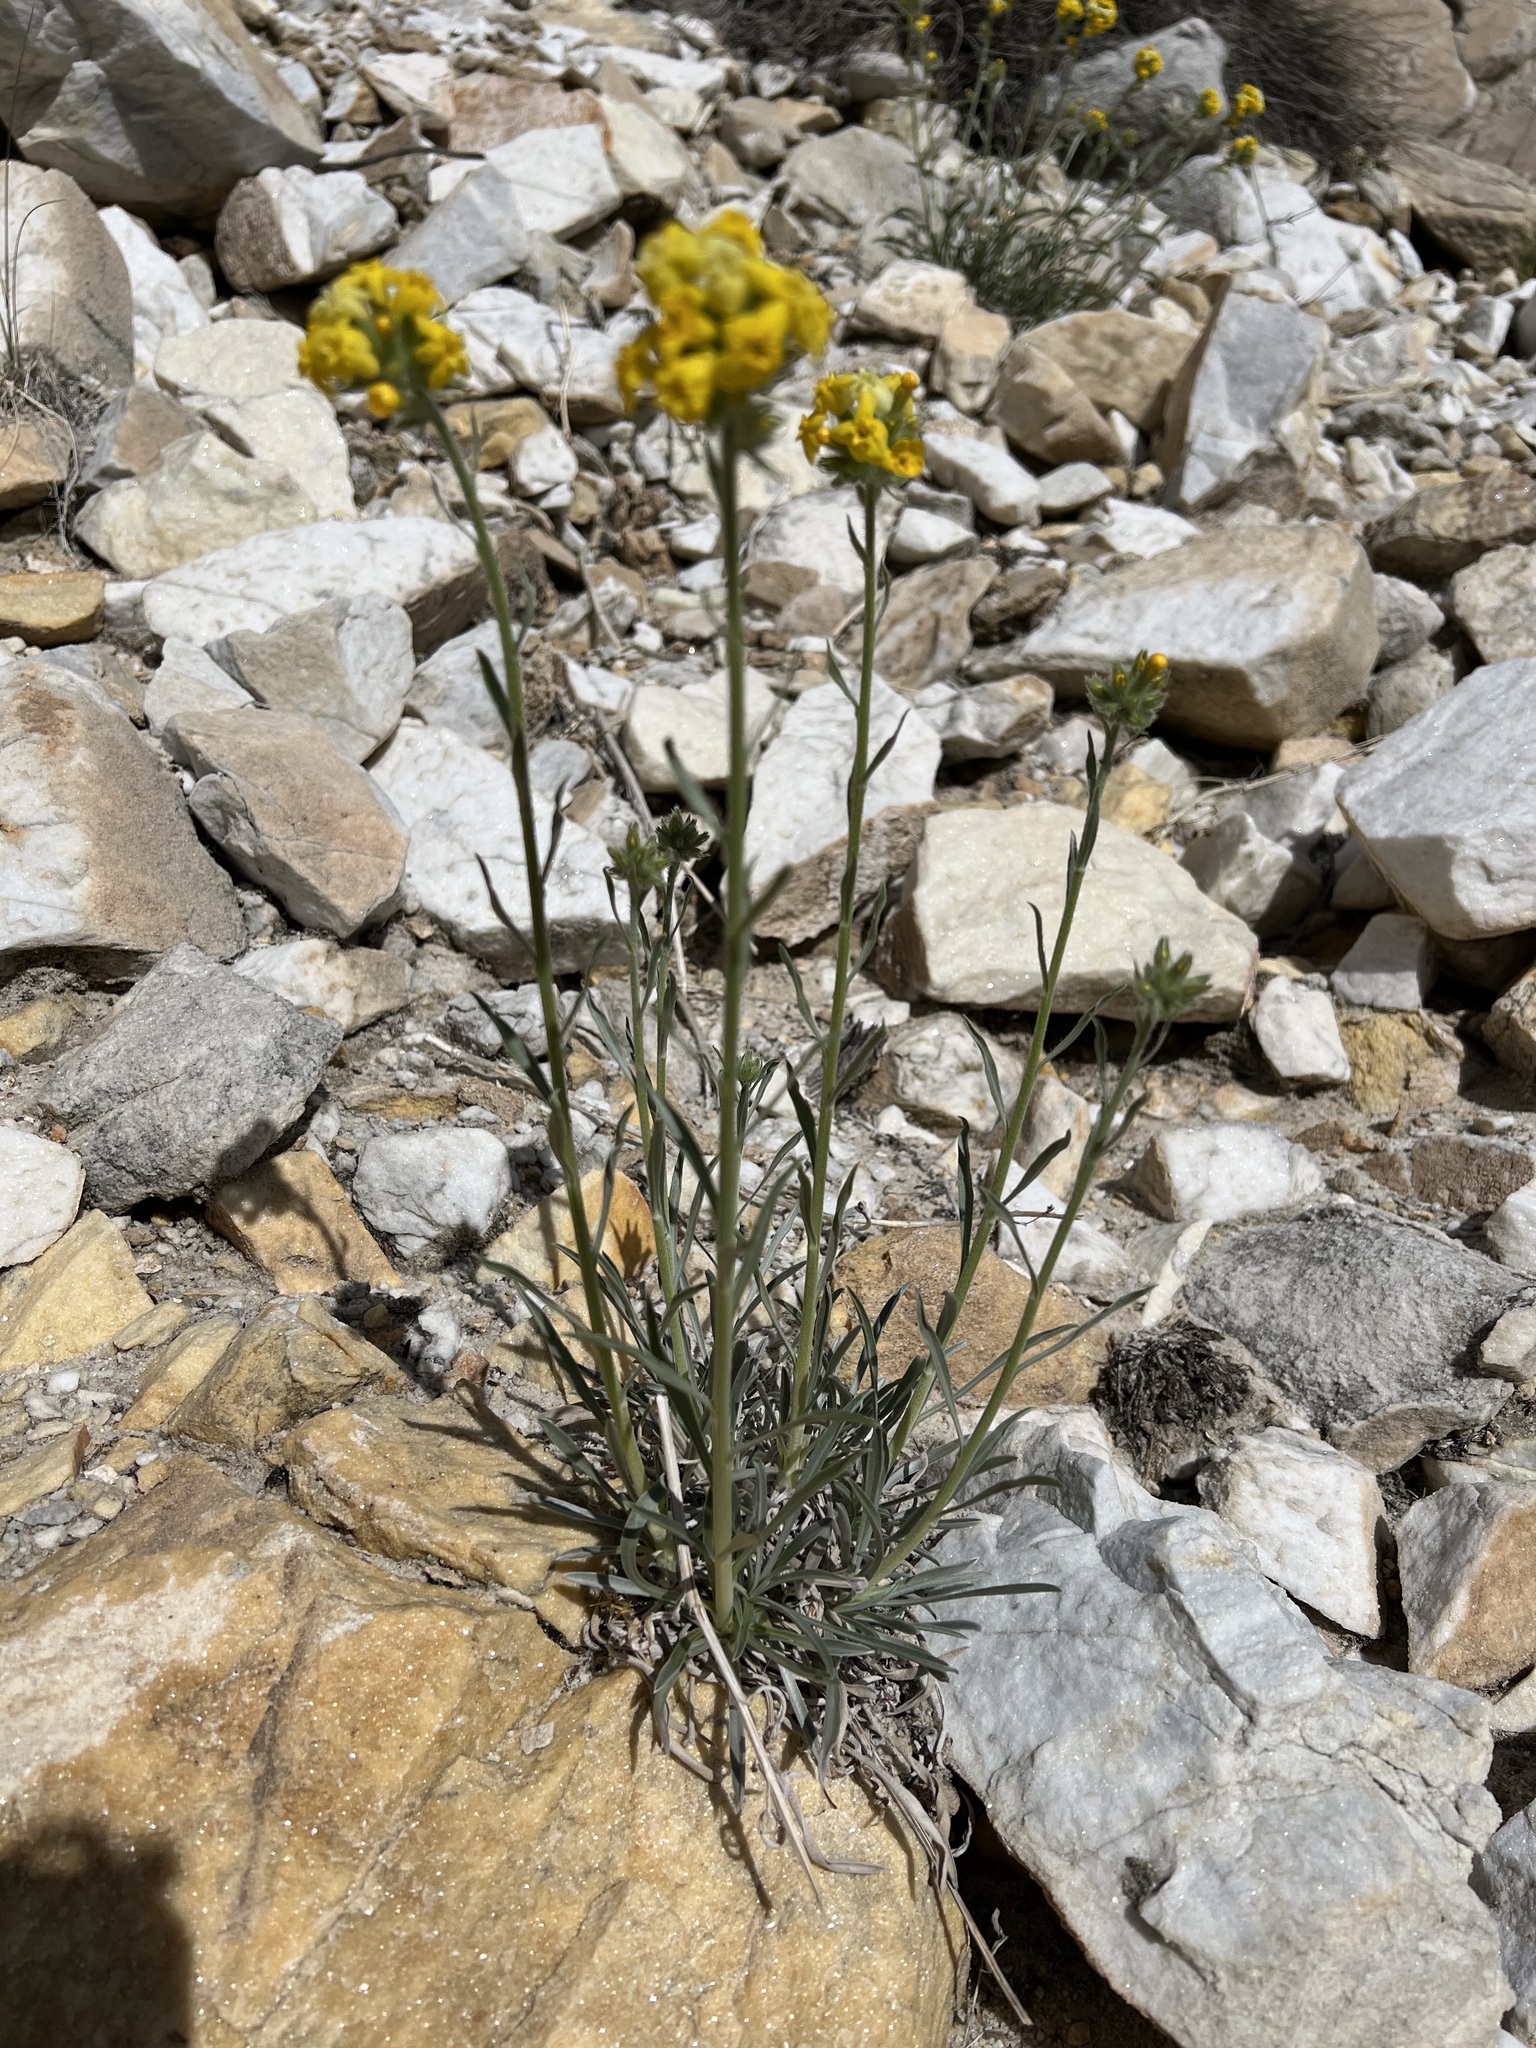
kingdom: Plantae
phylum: Tracheophyta
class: Magnoliopsida
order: Boraginales
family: Boraginaceae
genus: Oreocarya
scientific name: Oreocarya confertiflora
